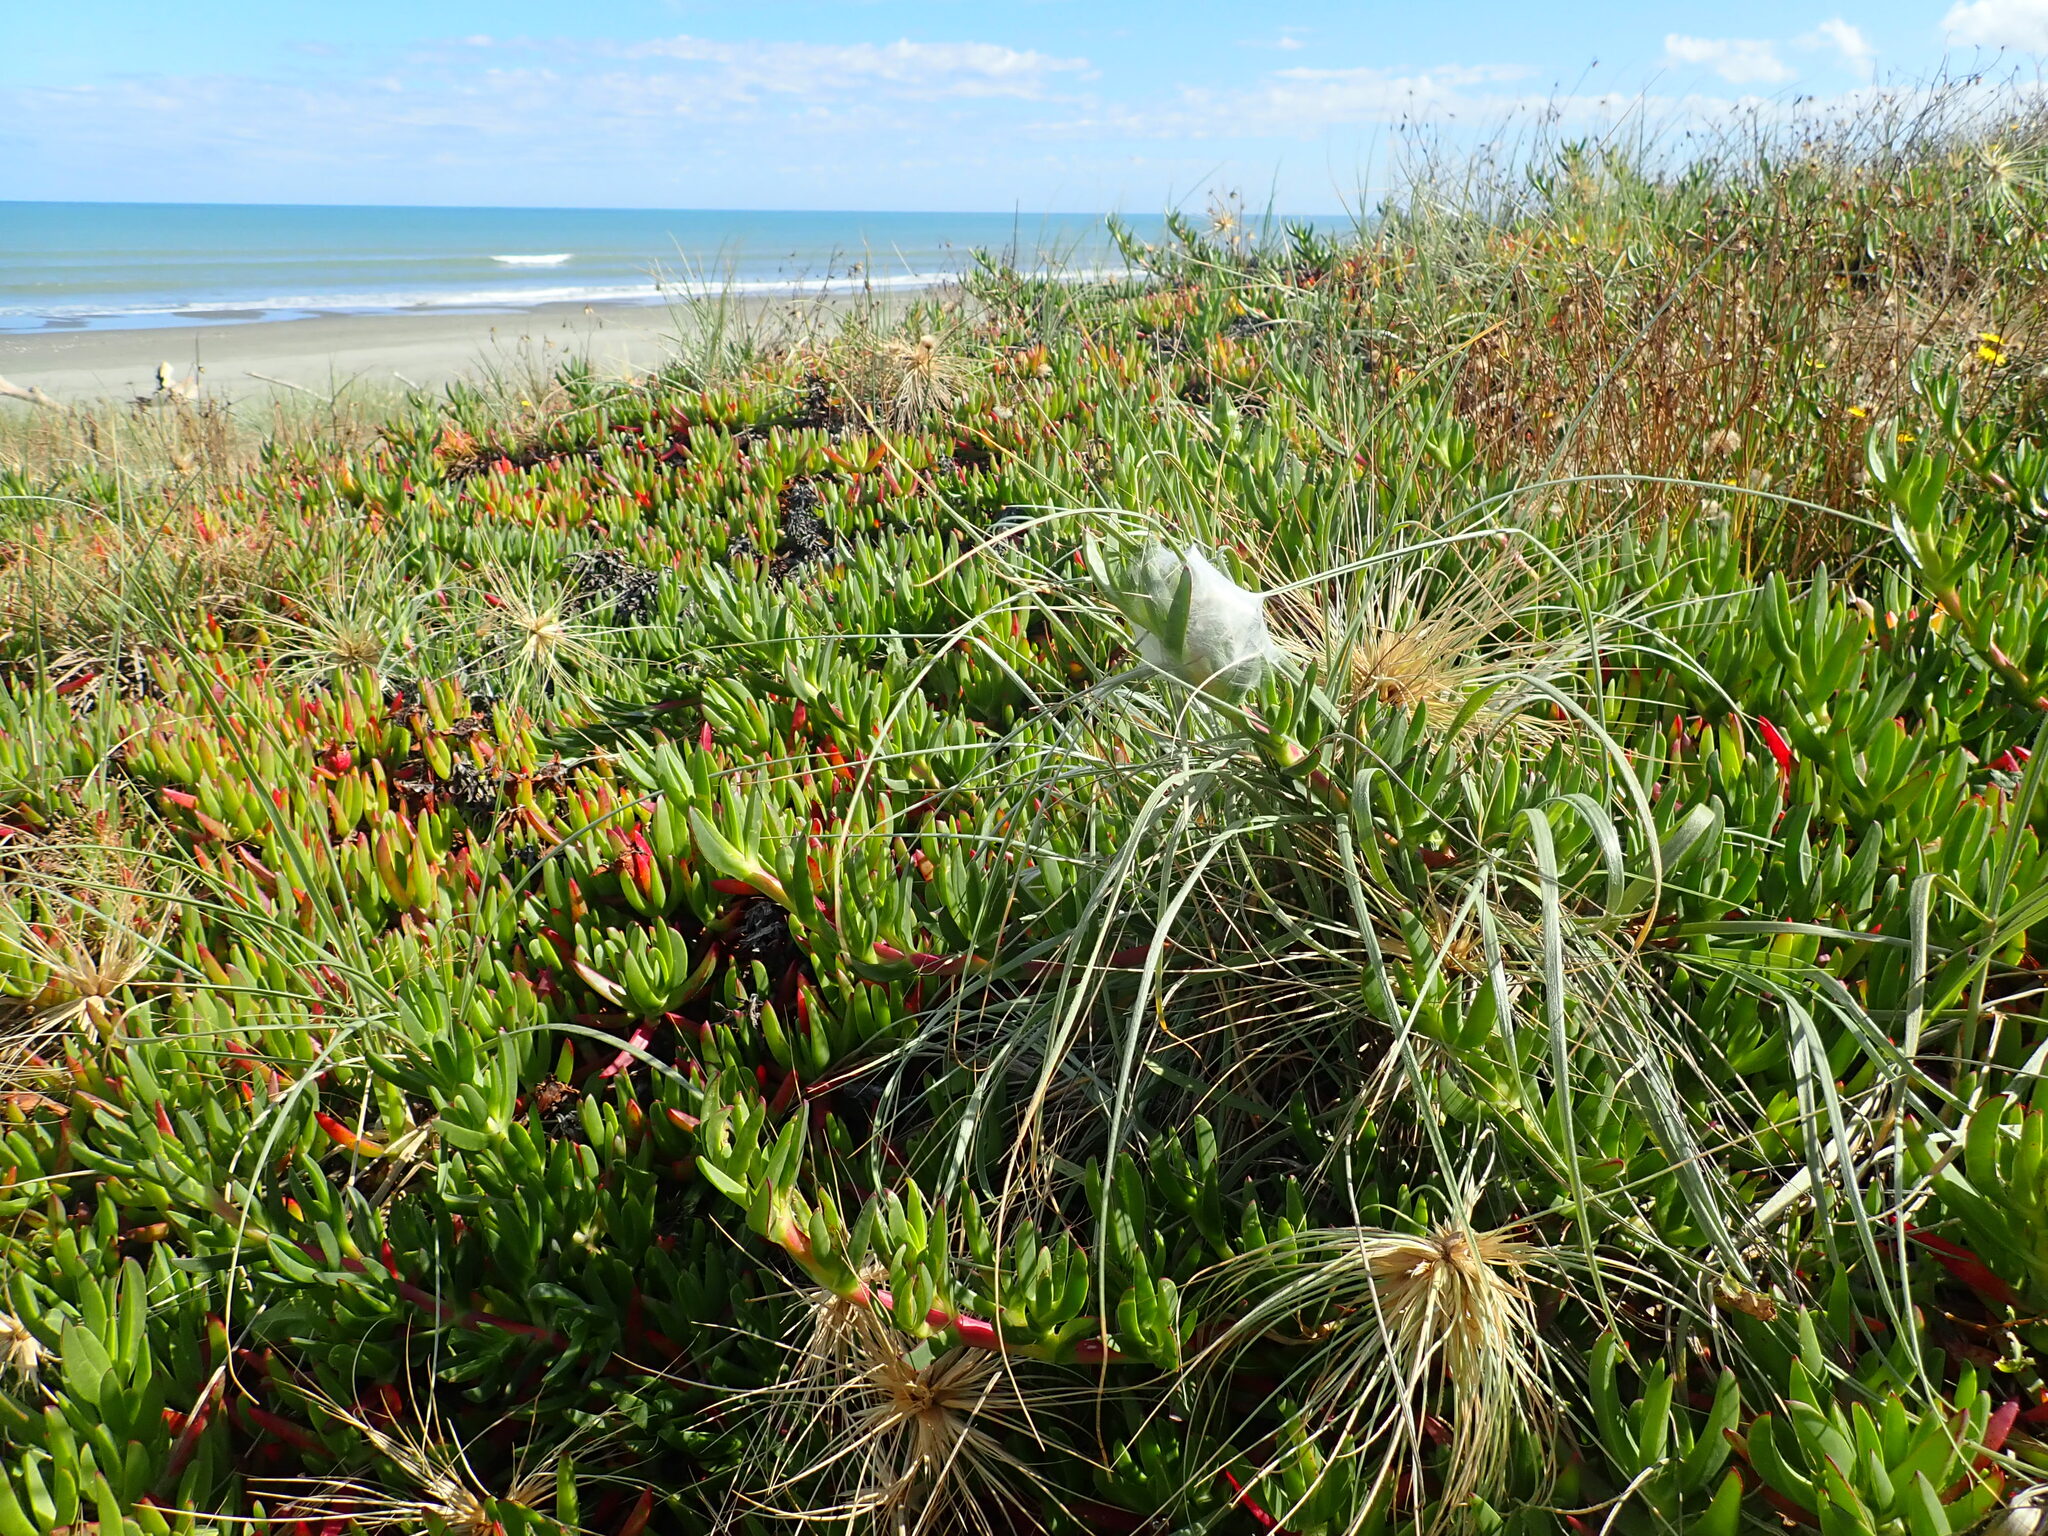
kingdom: Animalia
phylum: Arthropoda
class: Arachnida
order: Araneae
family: Pisauridae
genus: Dolomedes
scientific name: Dolomedes minor
